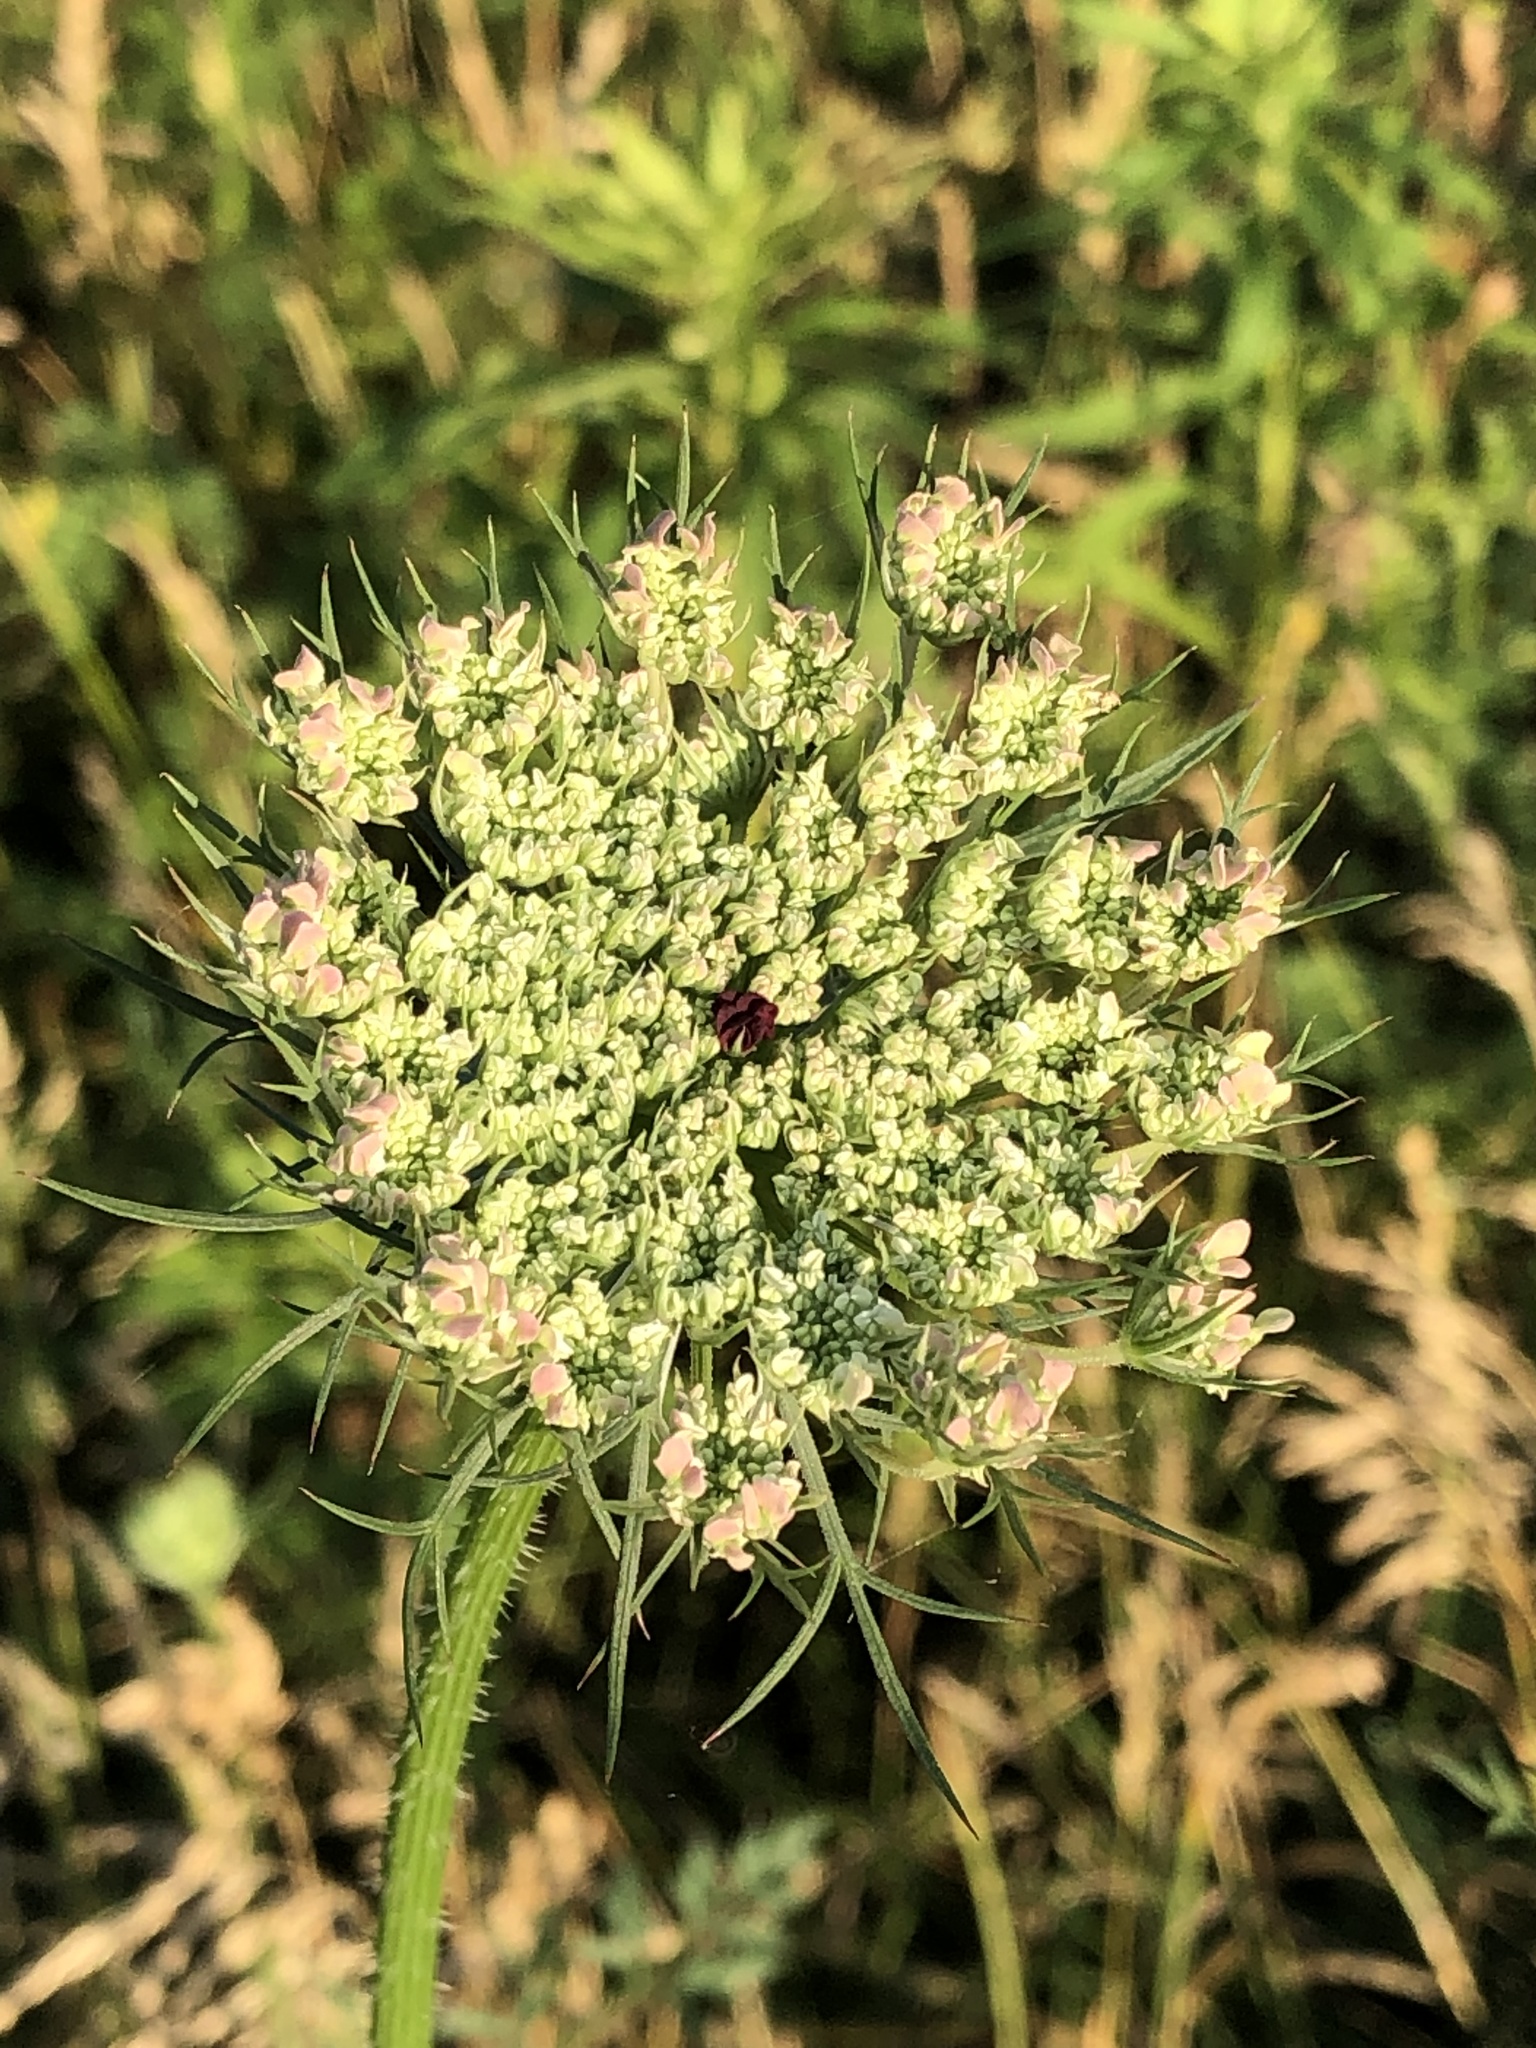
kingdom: Plantae
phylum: Tracheophyta
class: Magnoliopsida
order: Apiales
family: Apiaceae
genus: Daucus
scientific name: Daucus carota
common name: Wild carrot
